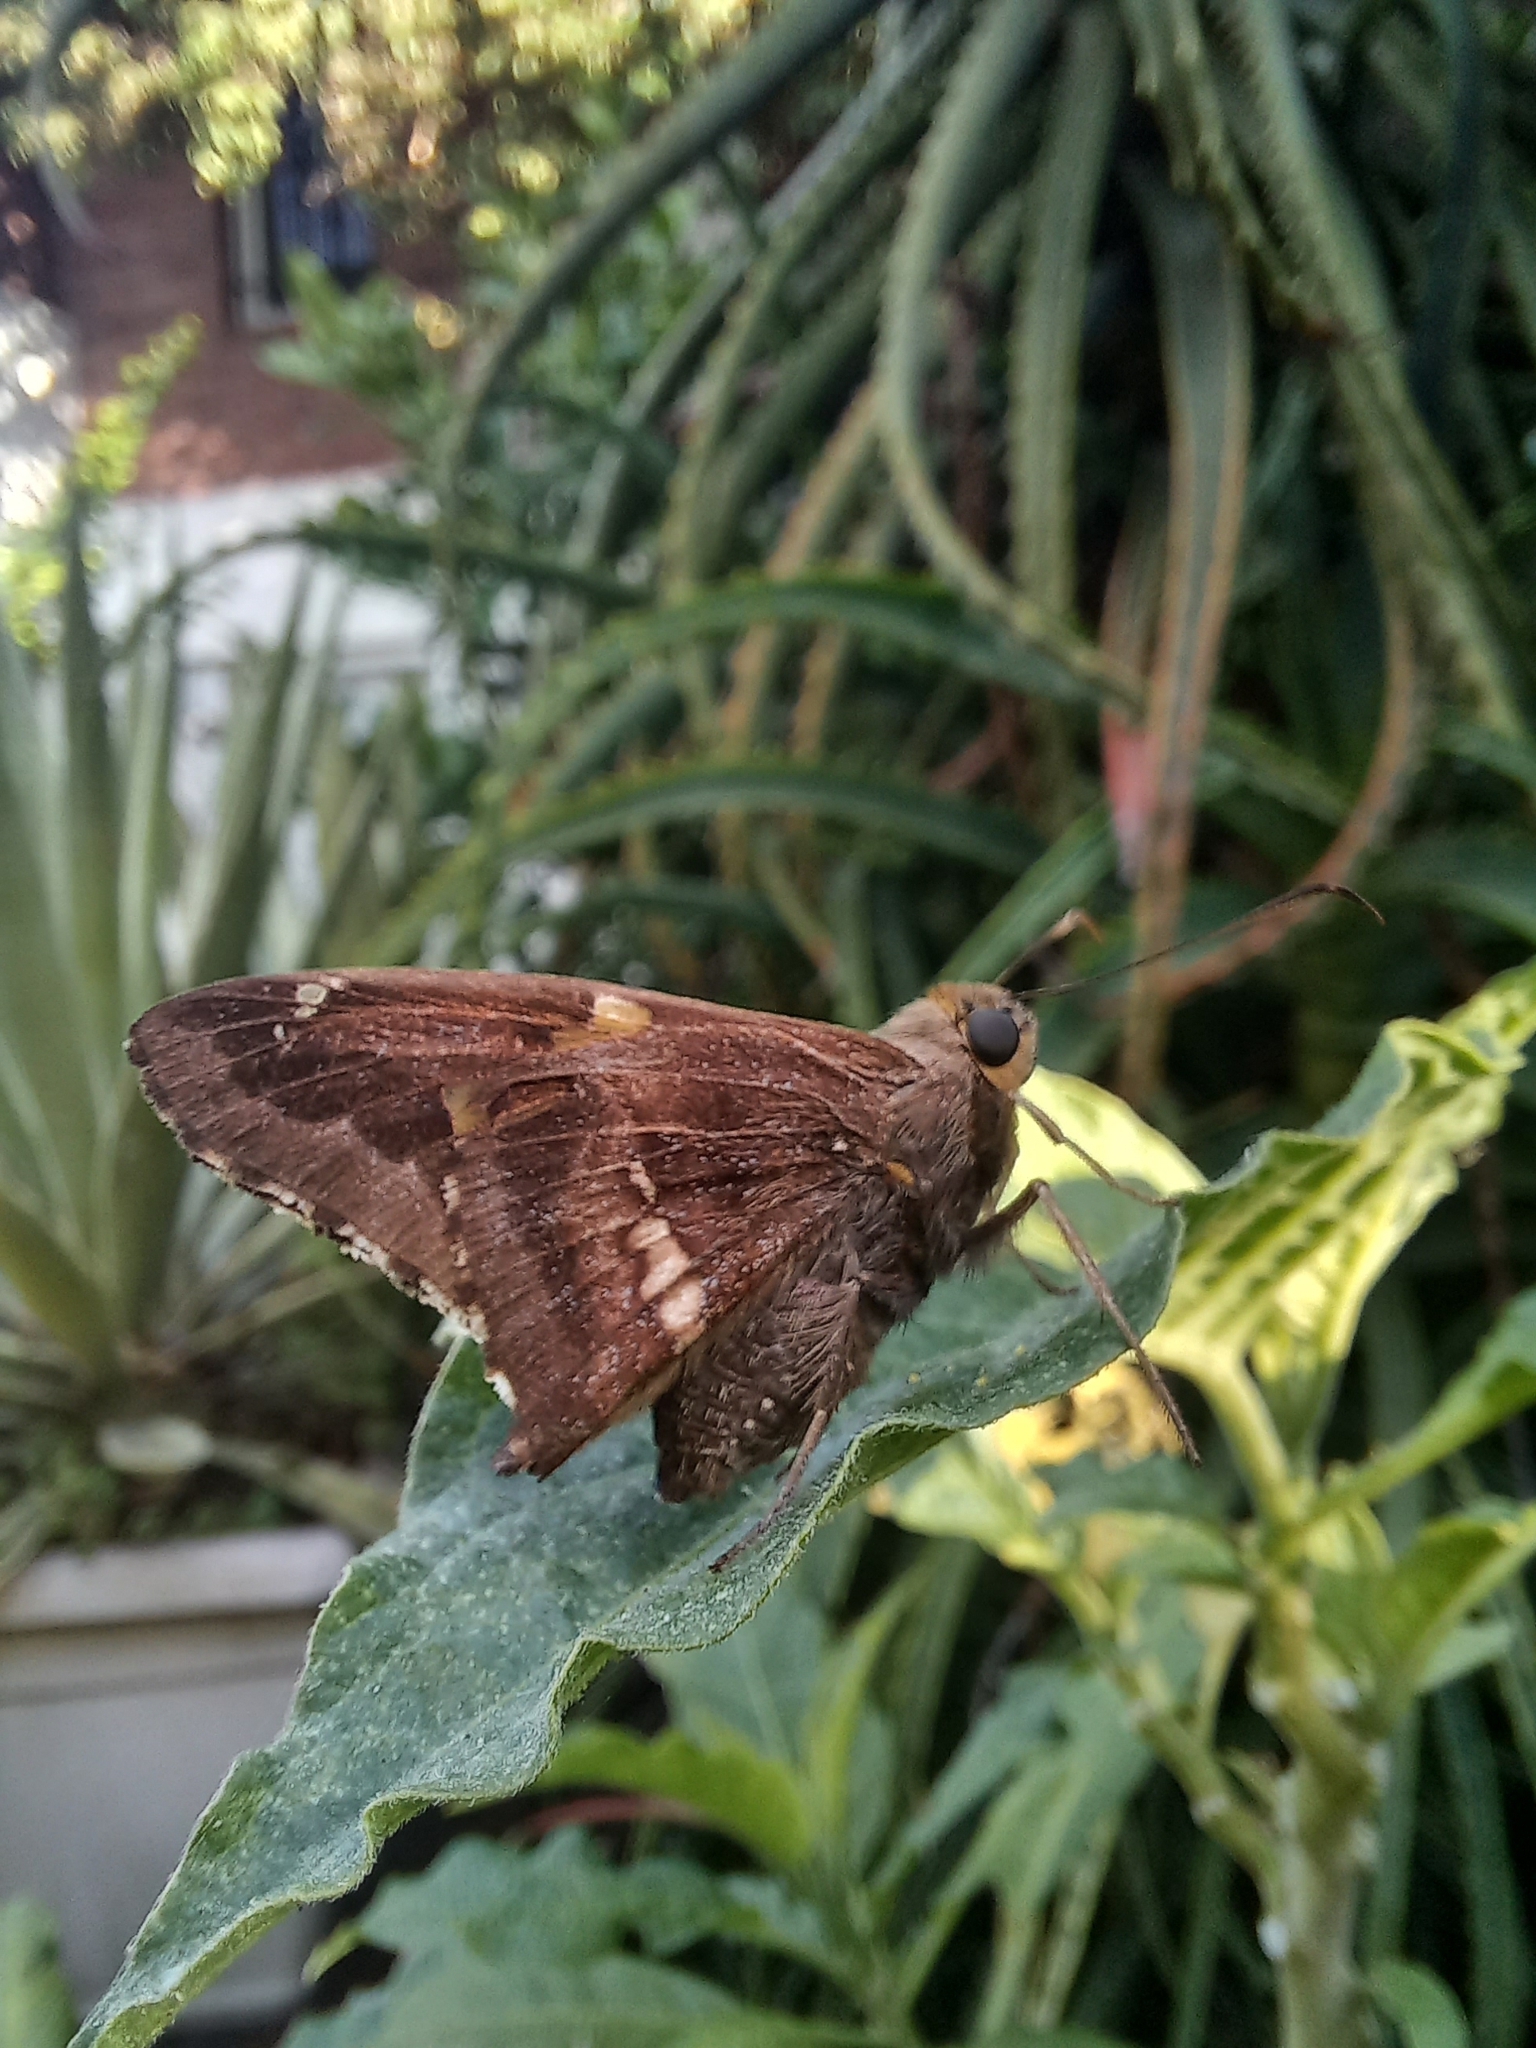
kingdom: Animalia
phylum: Arthropoda
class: Insecta
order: Lepidoptera
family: Hesperiidae
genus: Epargyreus
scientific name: Epargyreus tmolis
